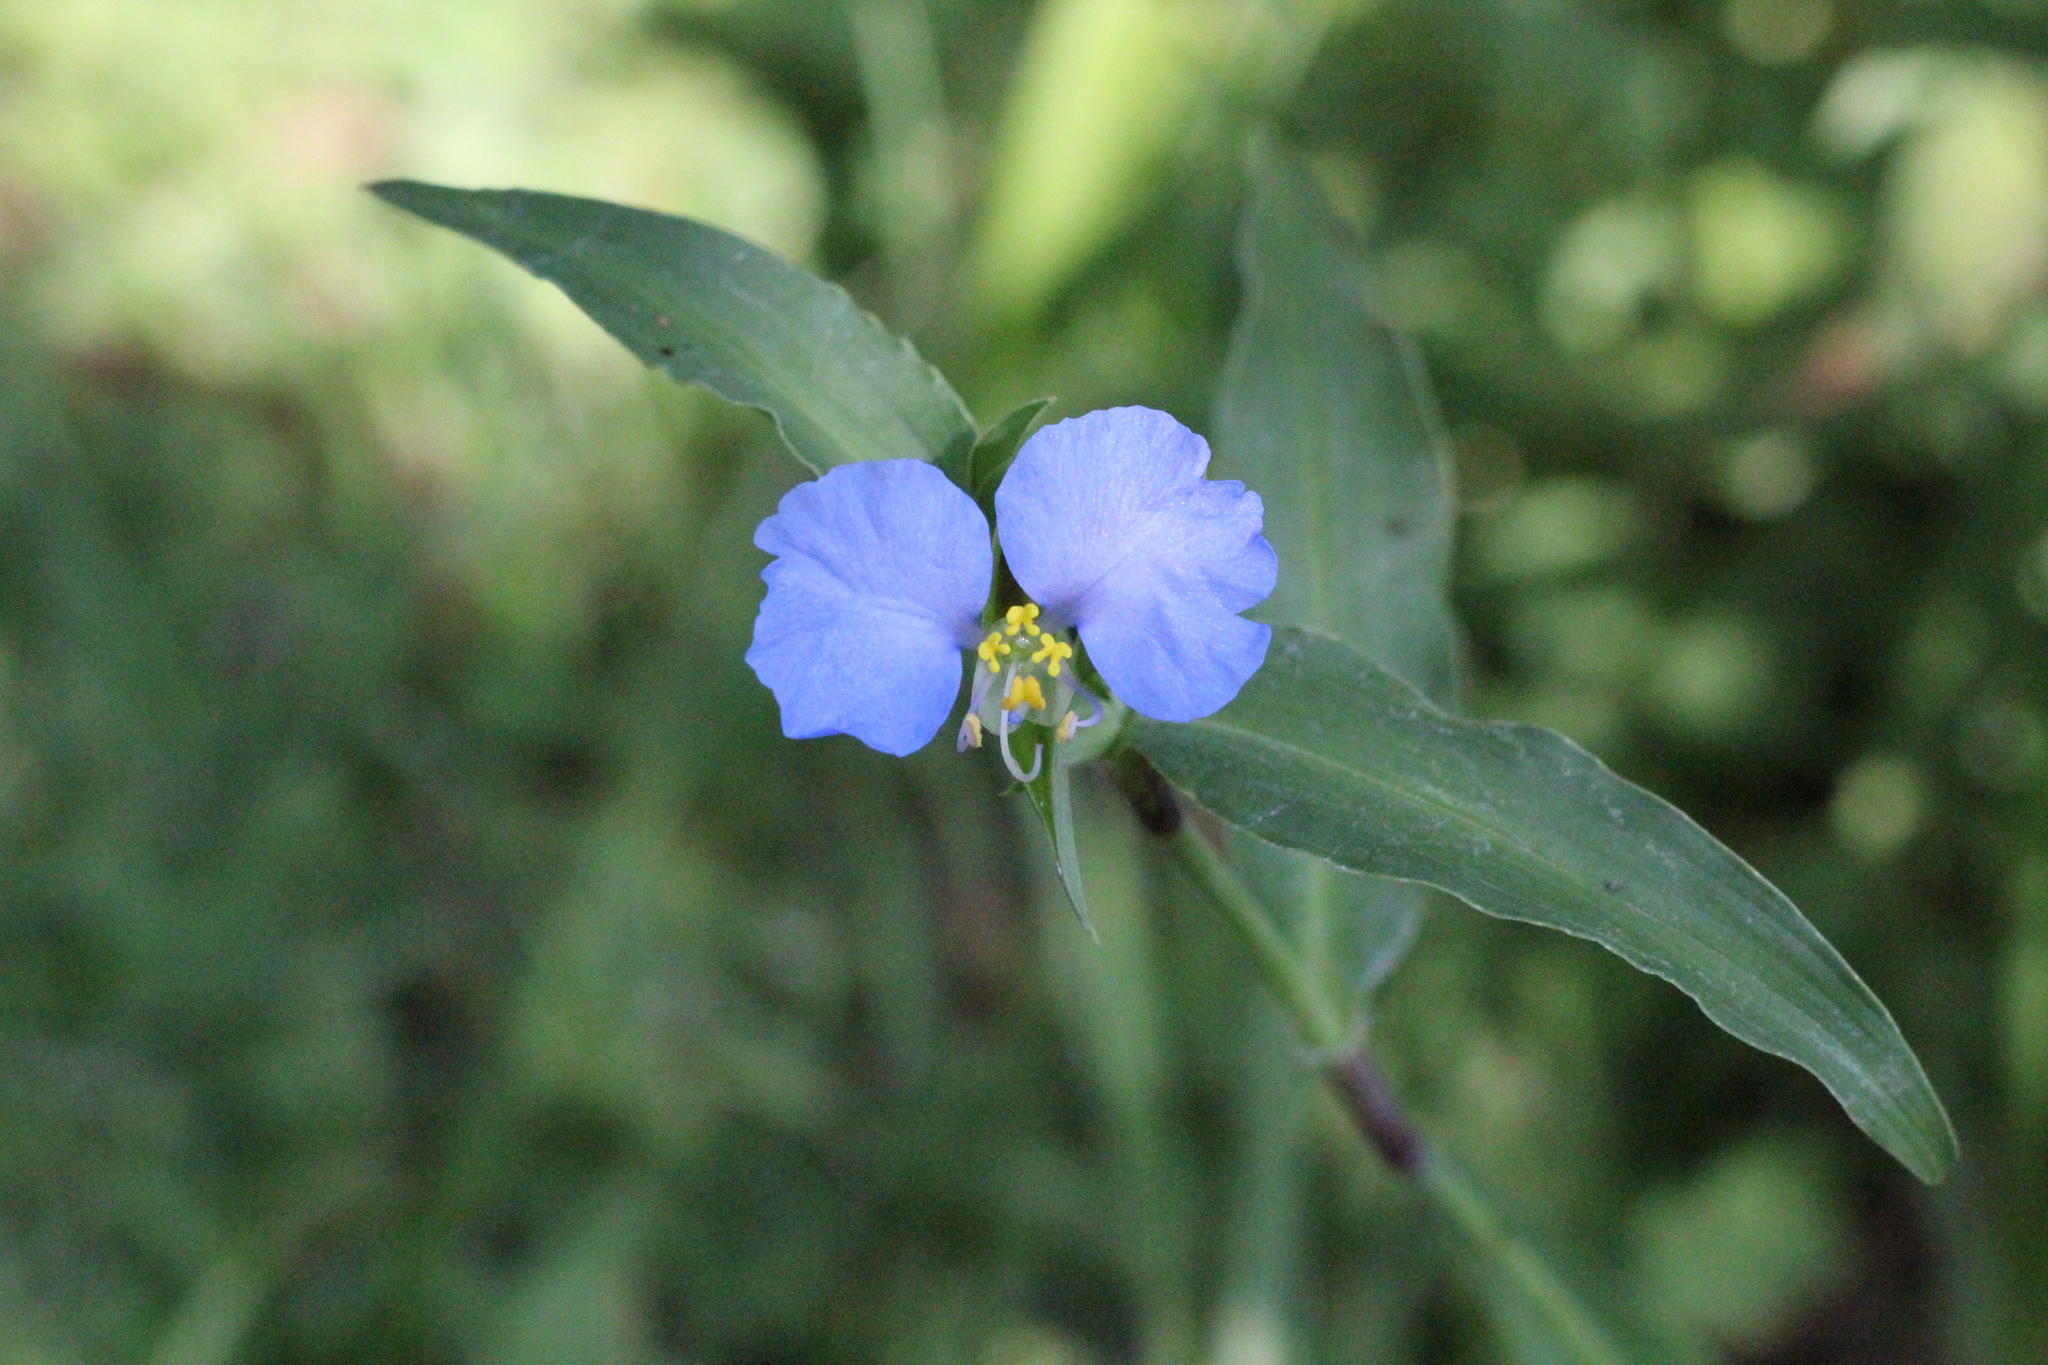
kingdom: Plantae
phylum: Tracheophyta
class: Liliopsida
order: Commelinales
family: Commelinaceae
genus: Commelina
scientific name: Commelina erecta
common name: Blousel blommetjie
